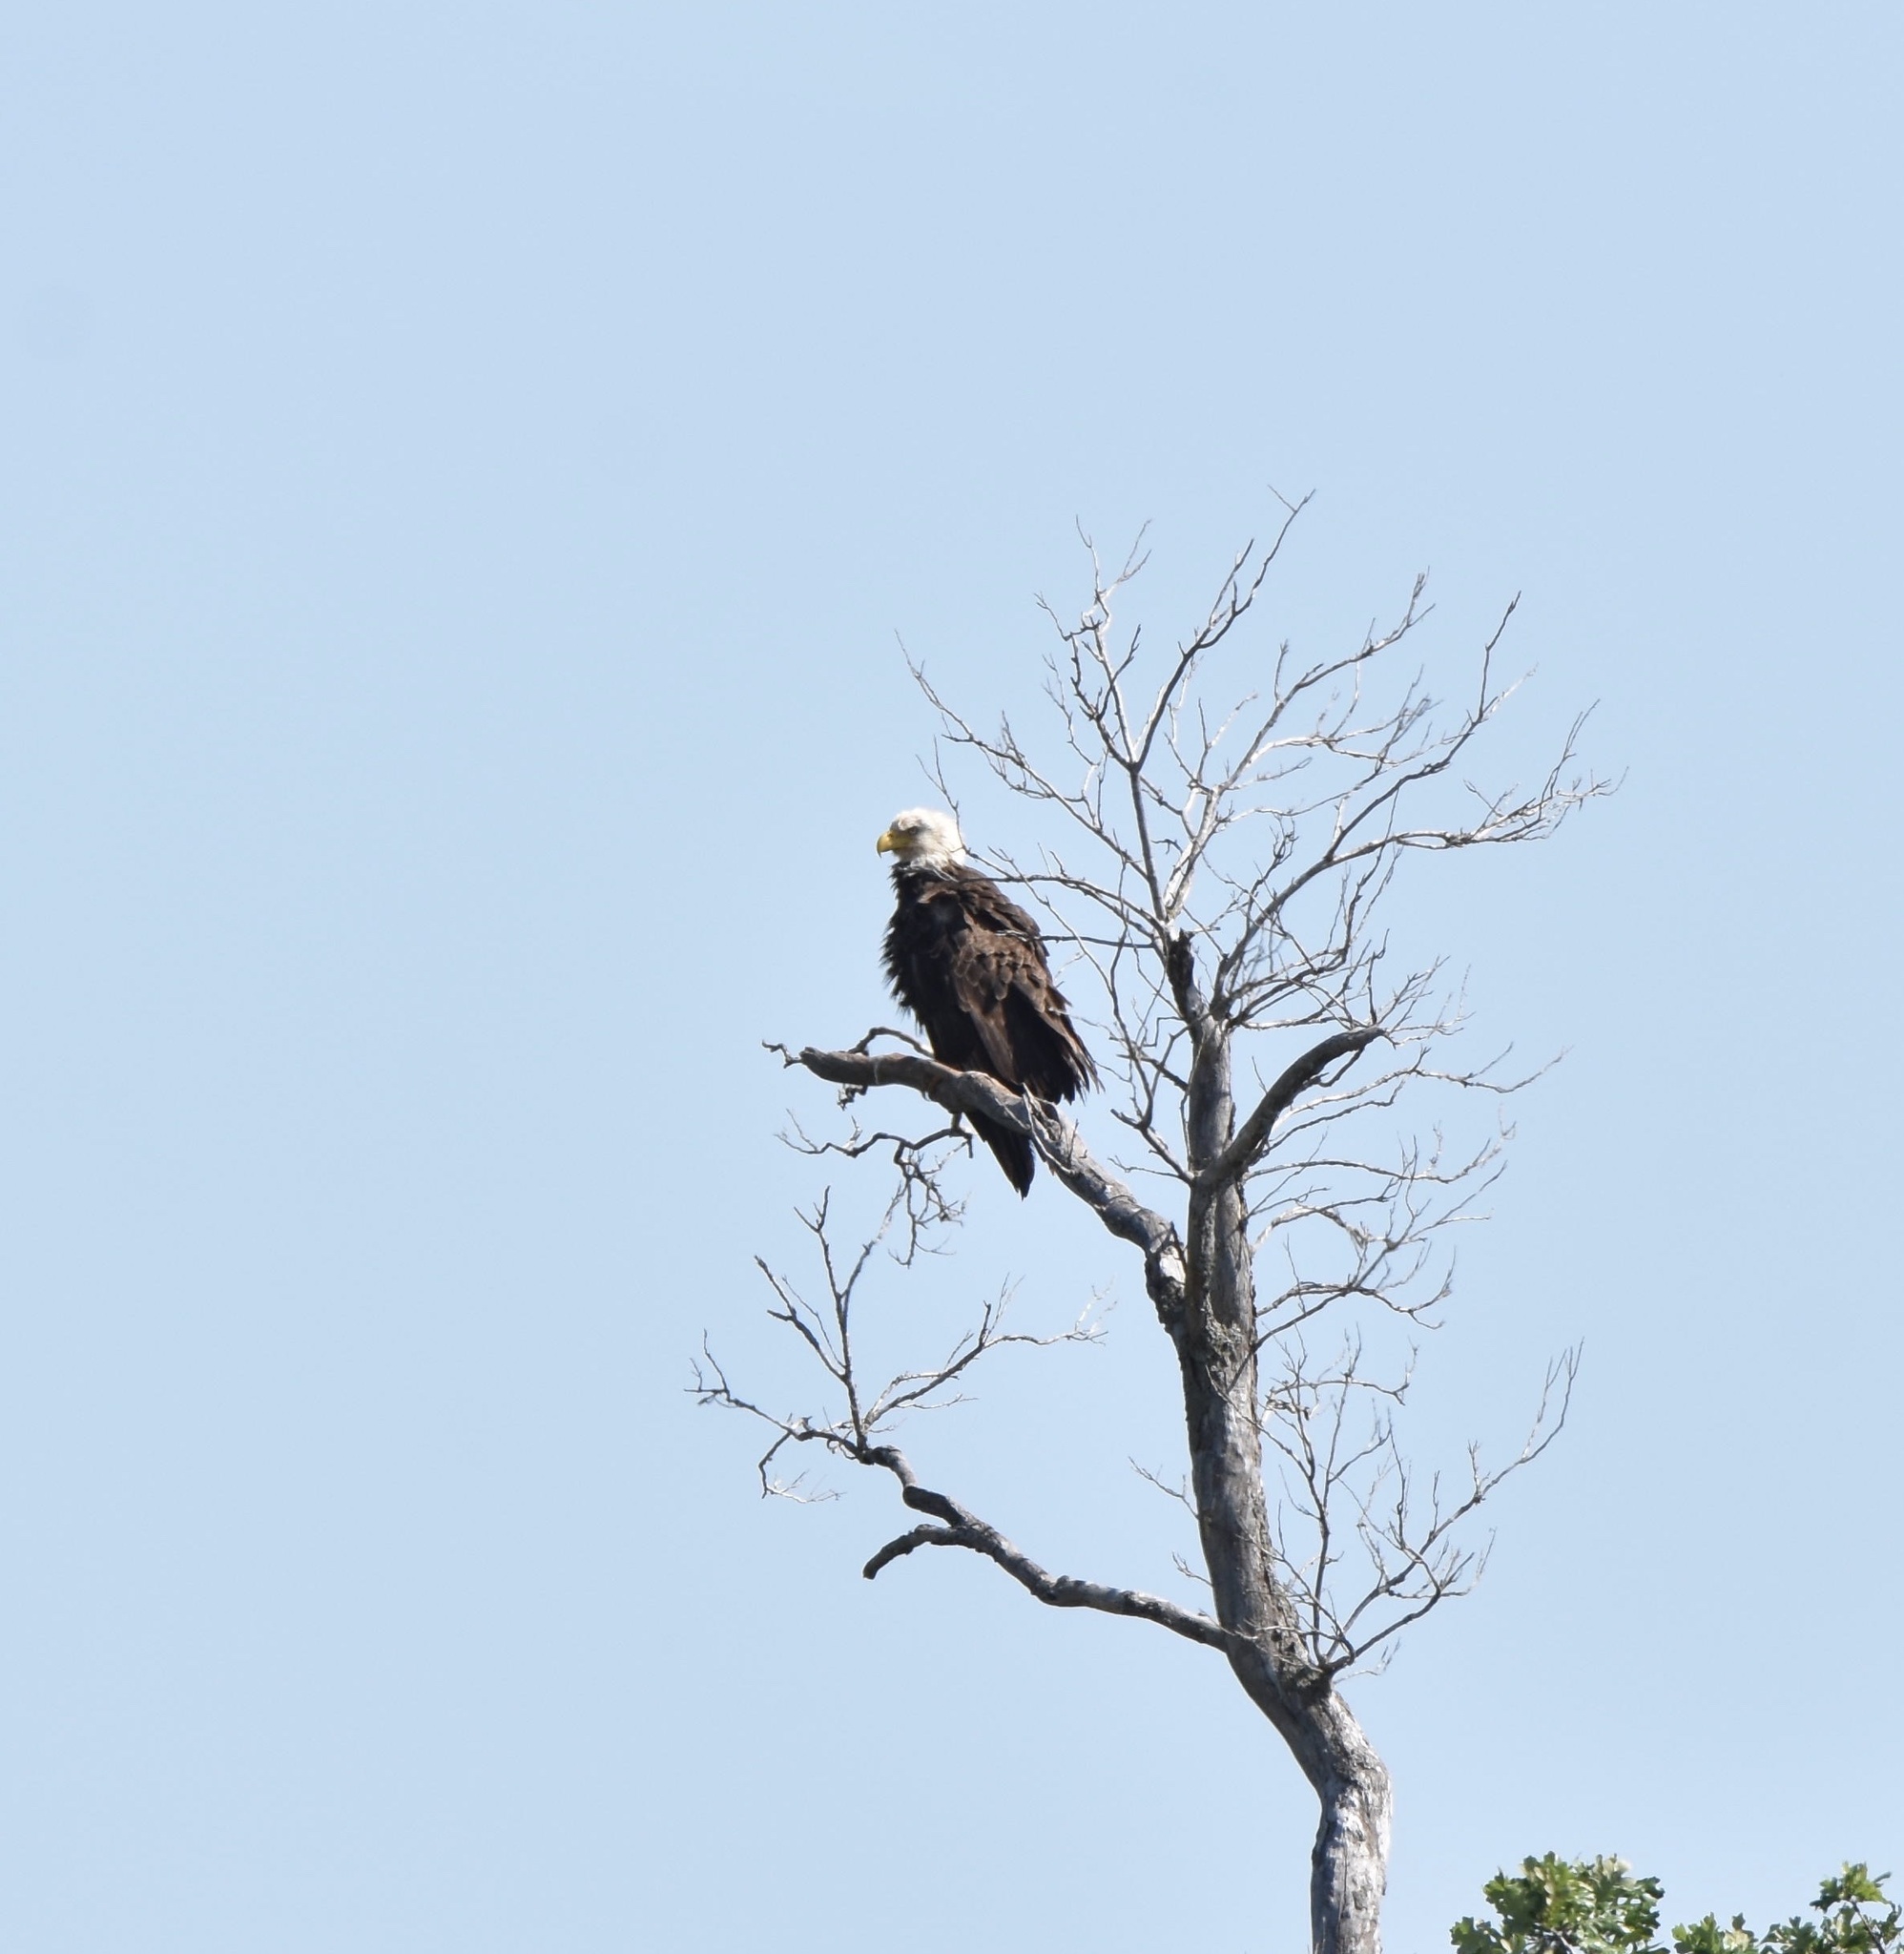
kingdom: Animalia
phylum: Chordata
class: Aves
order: Accipitriformes
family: Accipitridae
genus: Haliaeetus
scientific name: Haliaeetus leucocephalus
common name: Bald eagle
